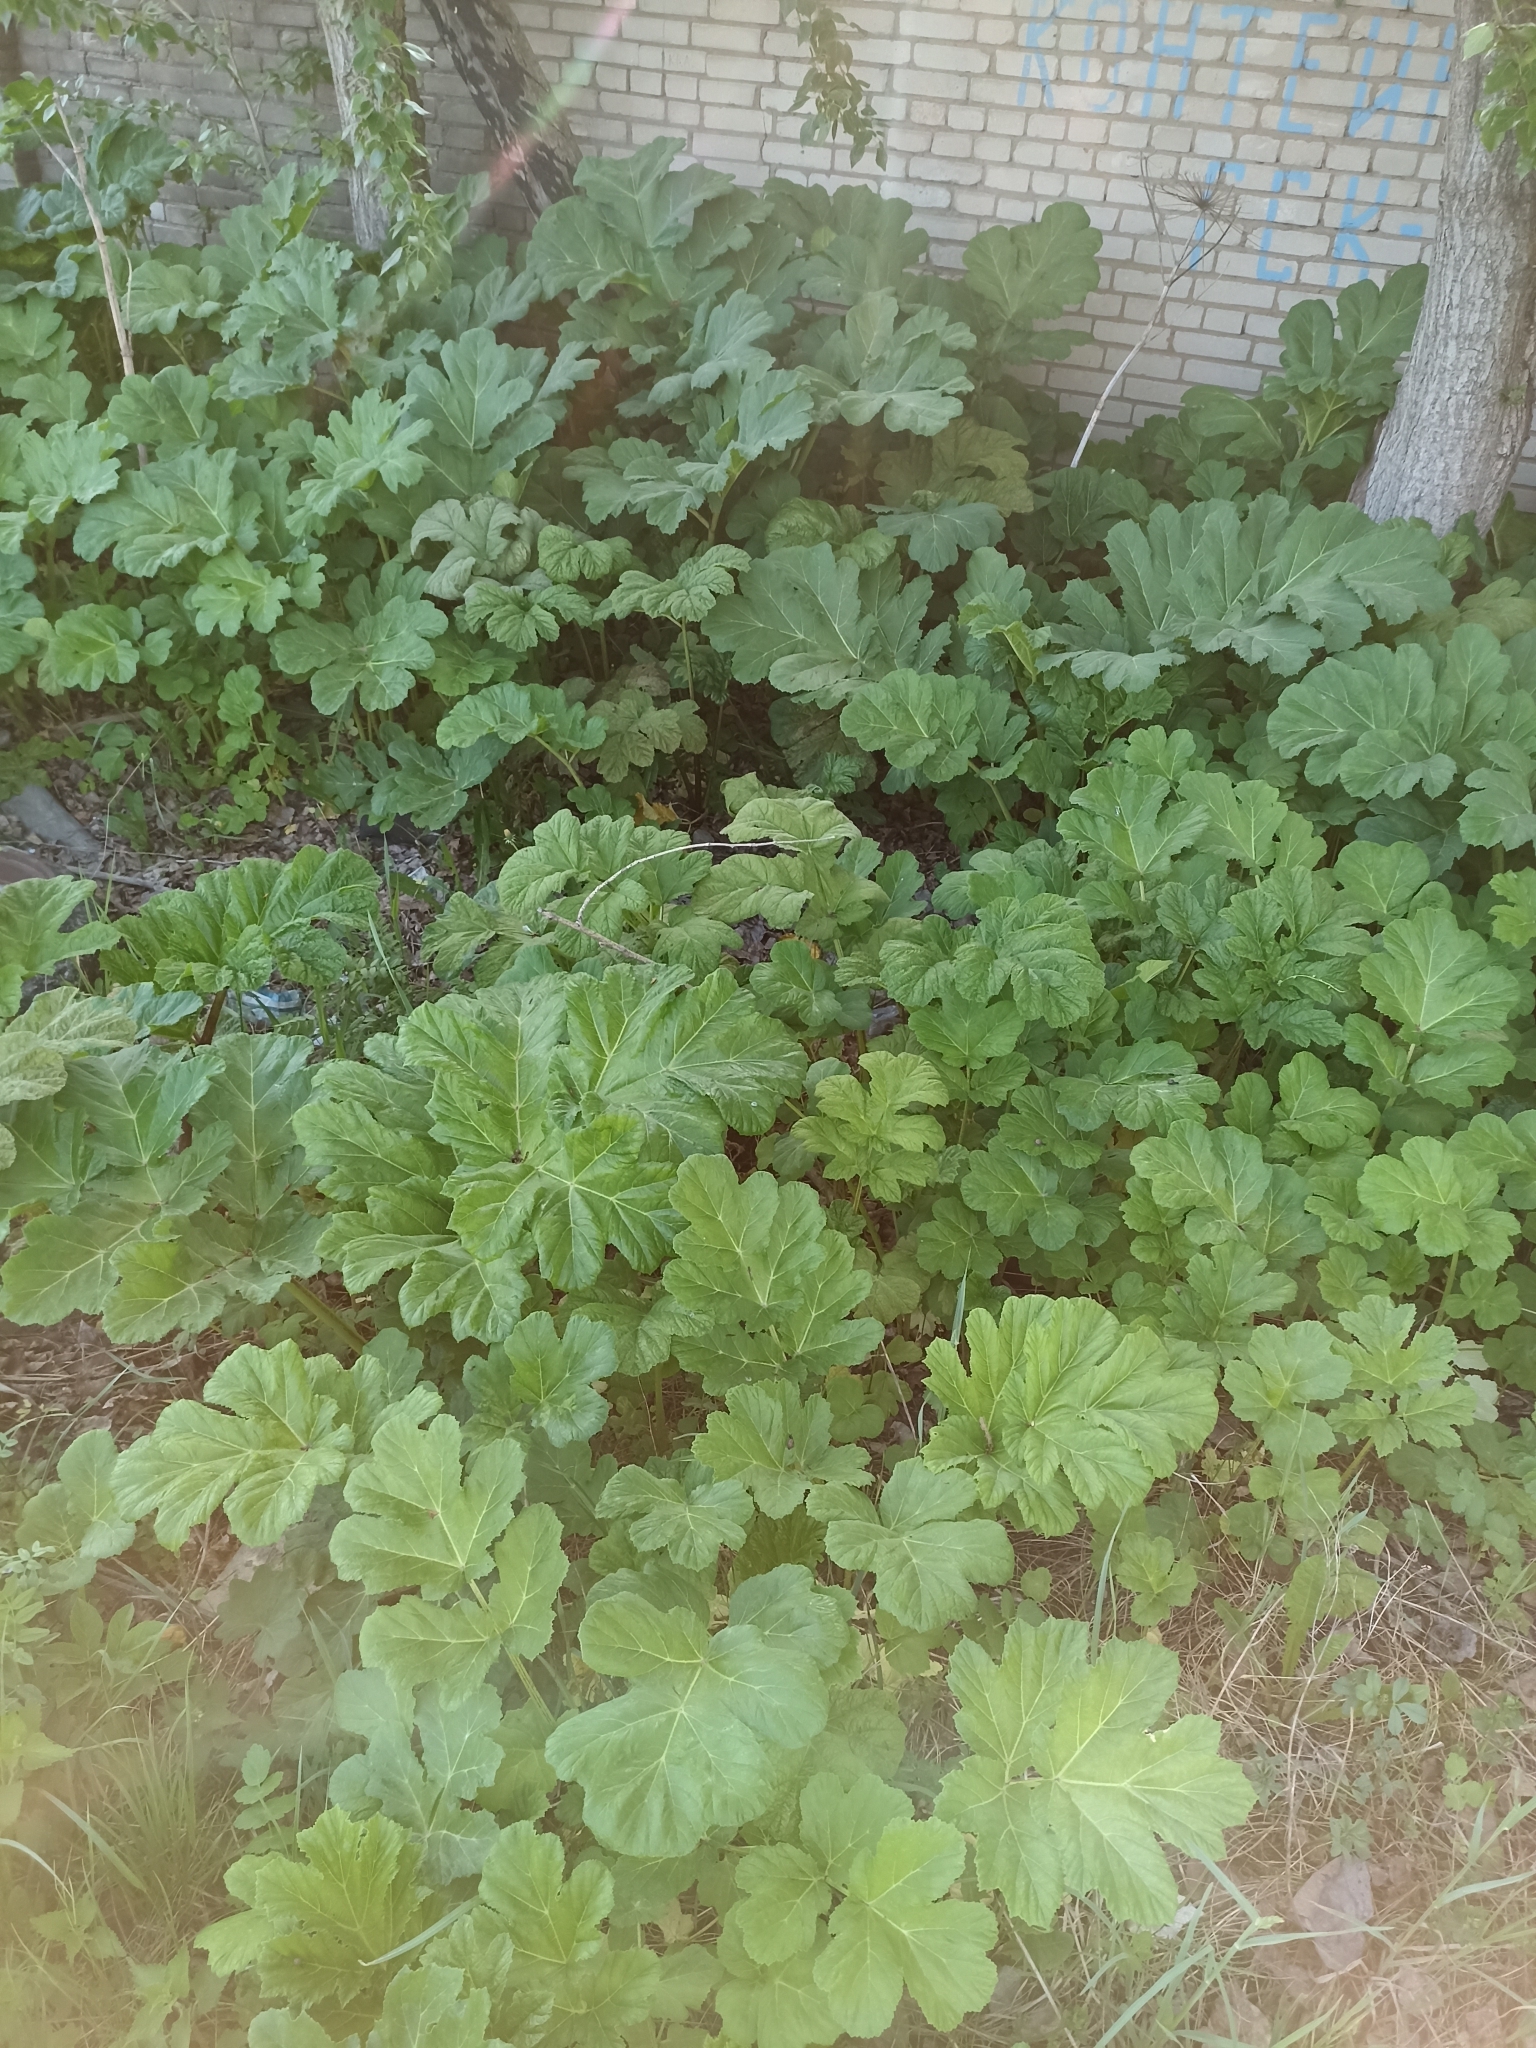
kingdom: Plantae
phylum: Tracheophyta
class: Magnoliopsida
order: Apiales
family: Apiaceae
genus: Heracleum
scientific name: Heracleum sosnowskyi
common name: Sosnowsky's hogweed
